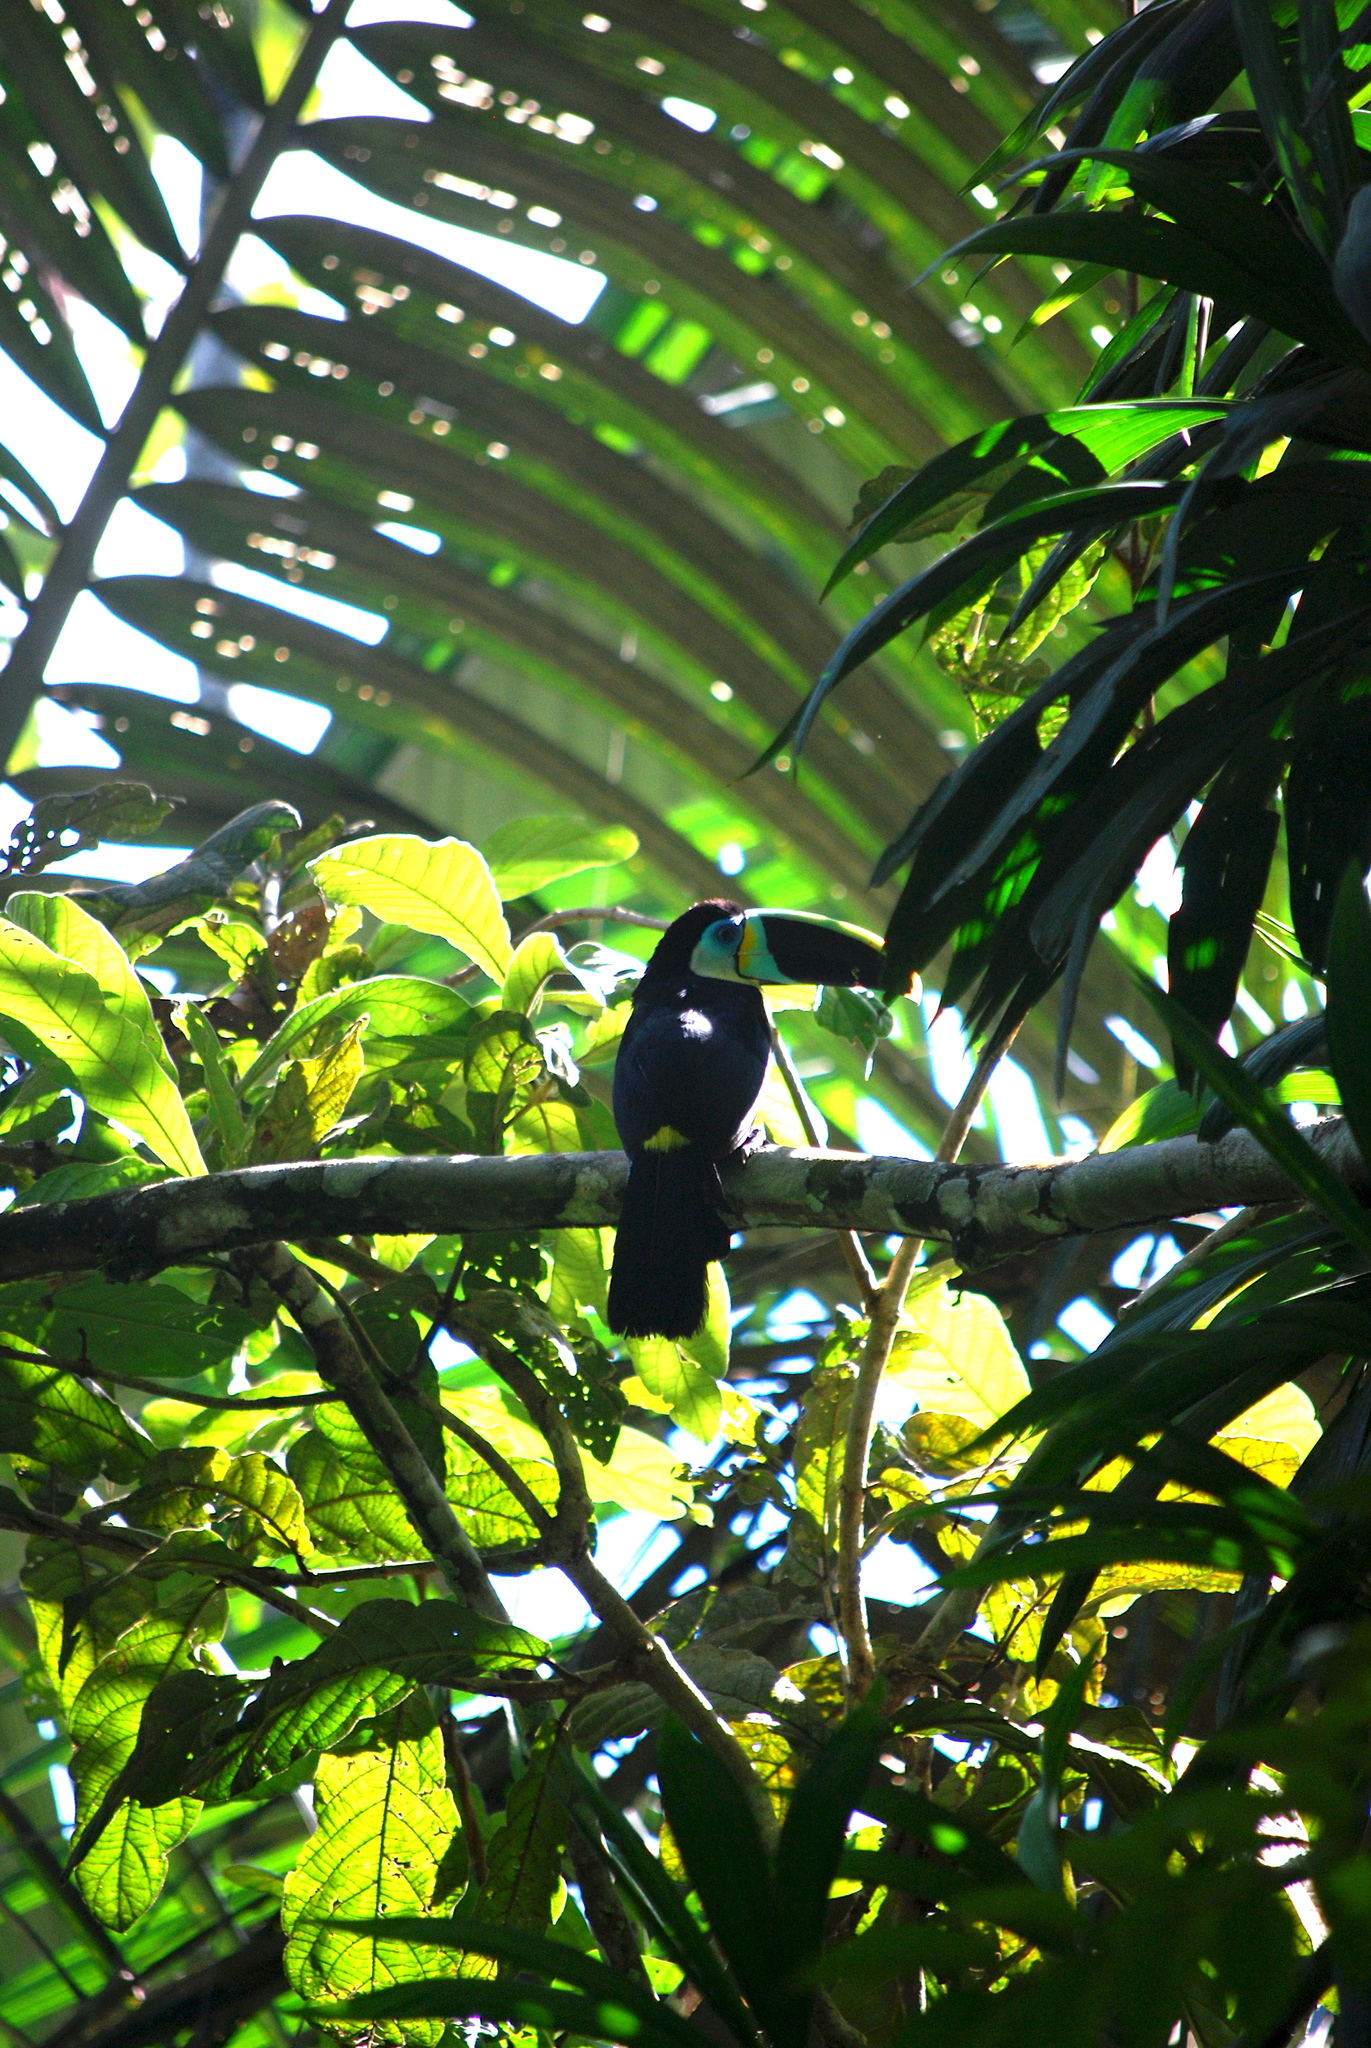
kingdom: Animalia
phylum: Chordata
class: Aves
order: Piciformes
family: Ramphastidae
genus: Ramphastos
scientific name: Ramphastos citreolaemus
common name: Citron-throated toucan
